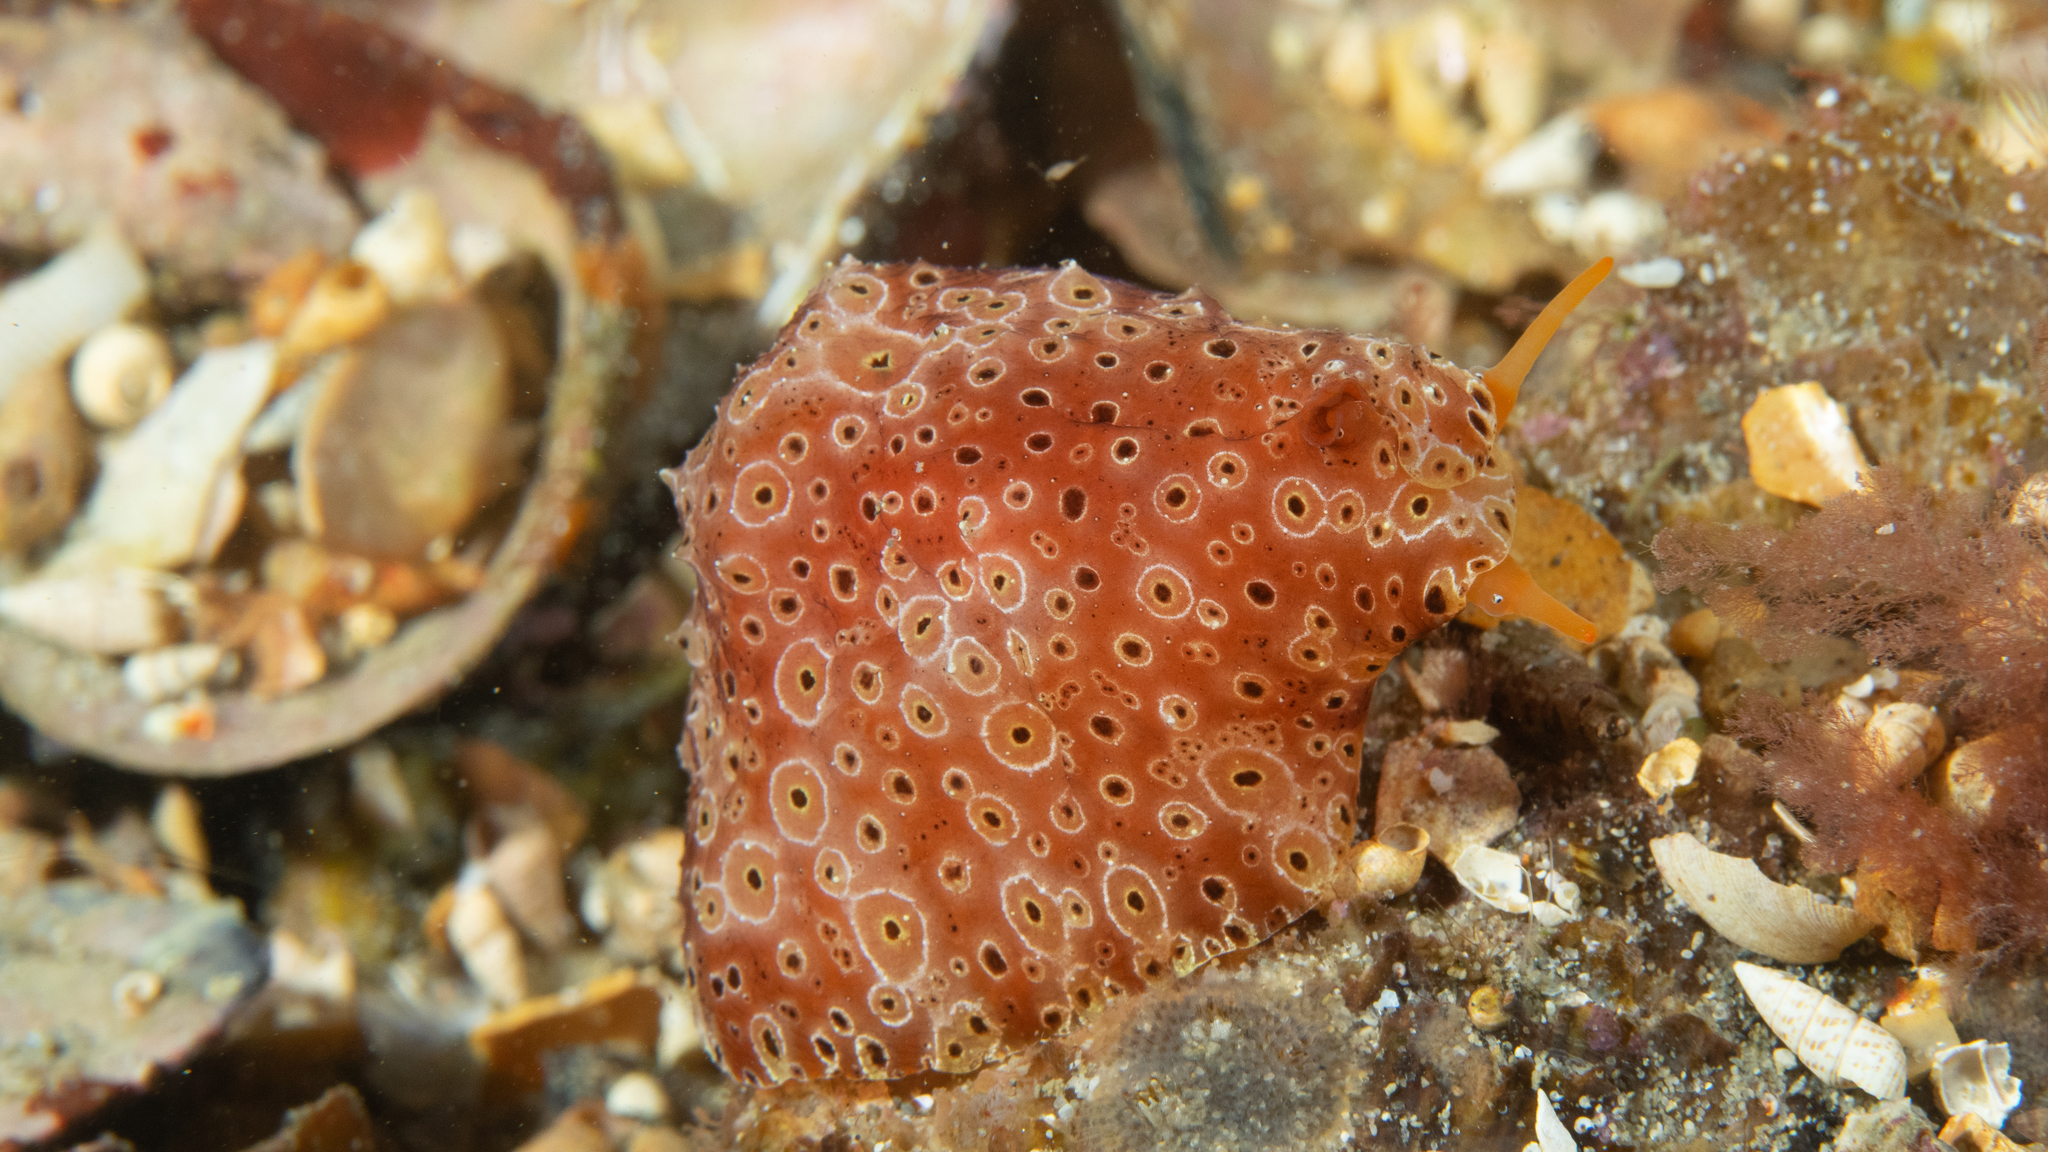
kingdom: Animalia
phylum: Mollusca
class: Gastropoda
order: Littorinimorpha
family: Velutinidae
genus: Djiboutia
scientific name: Djiboutia australis
